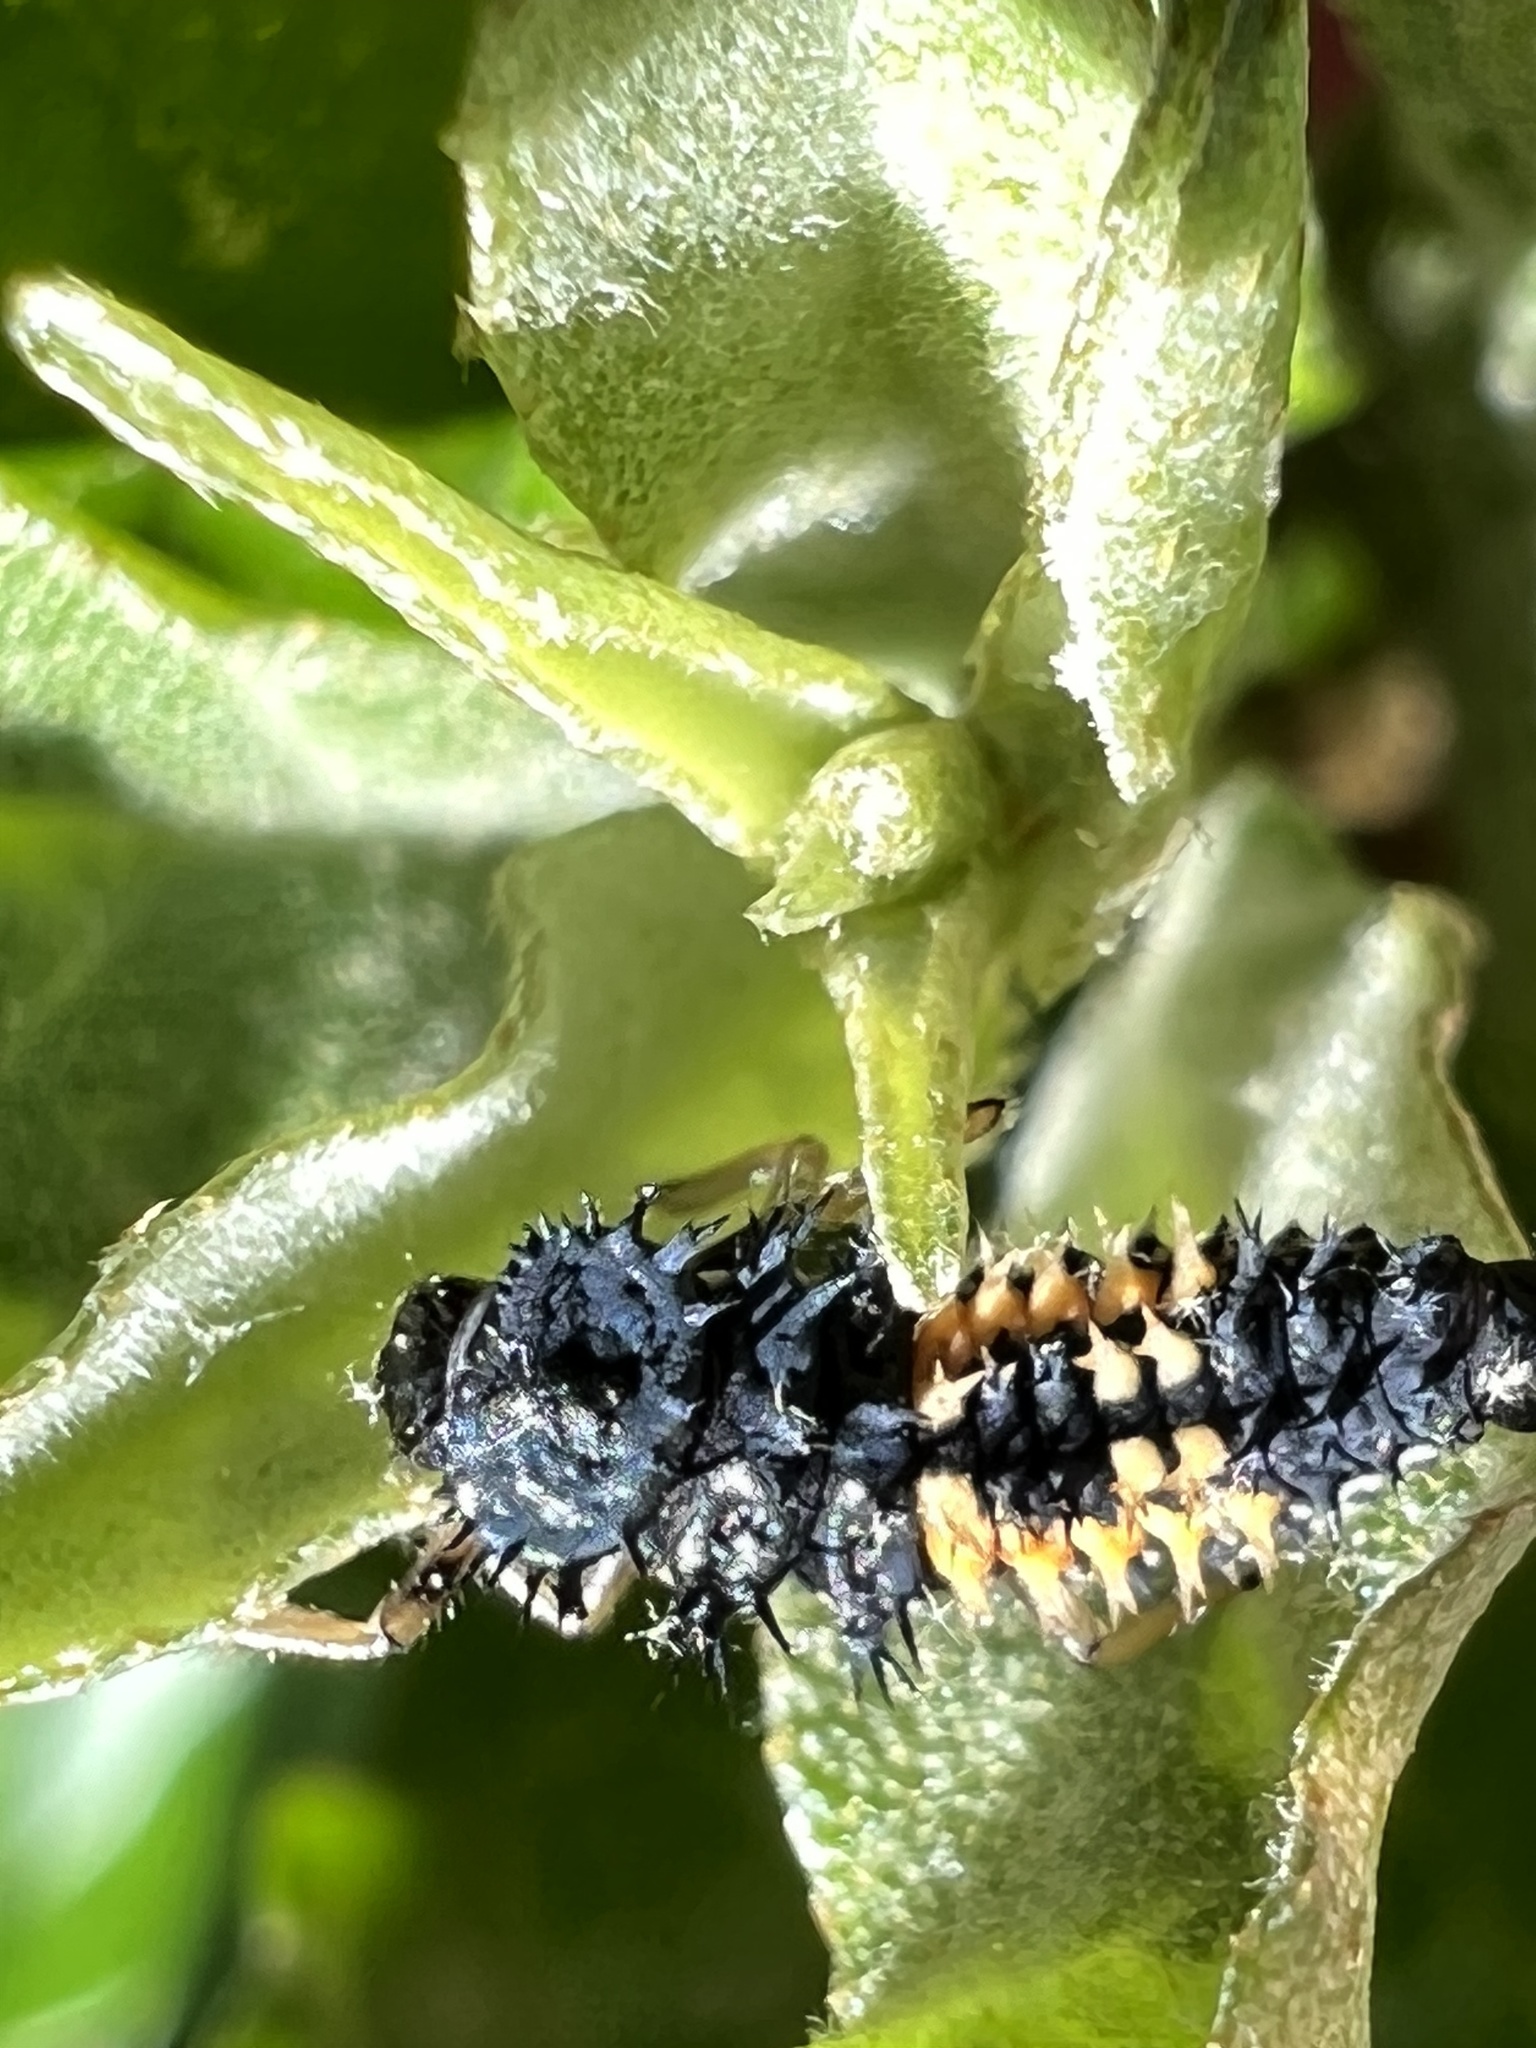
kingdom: Animalia
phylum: Arthropoda
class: Insecta
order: Coleoptera
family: Coccinellidae
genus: Harmonia
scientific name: Harmonia axyridis
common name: Harlequin ladybird
